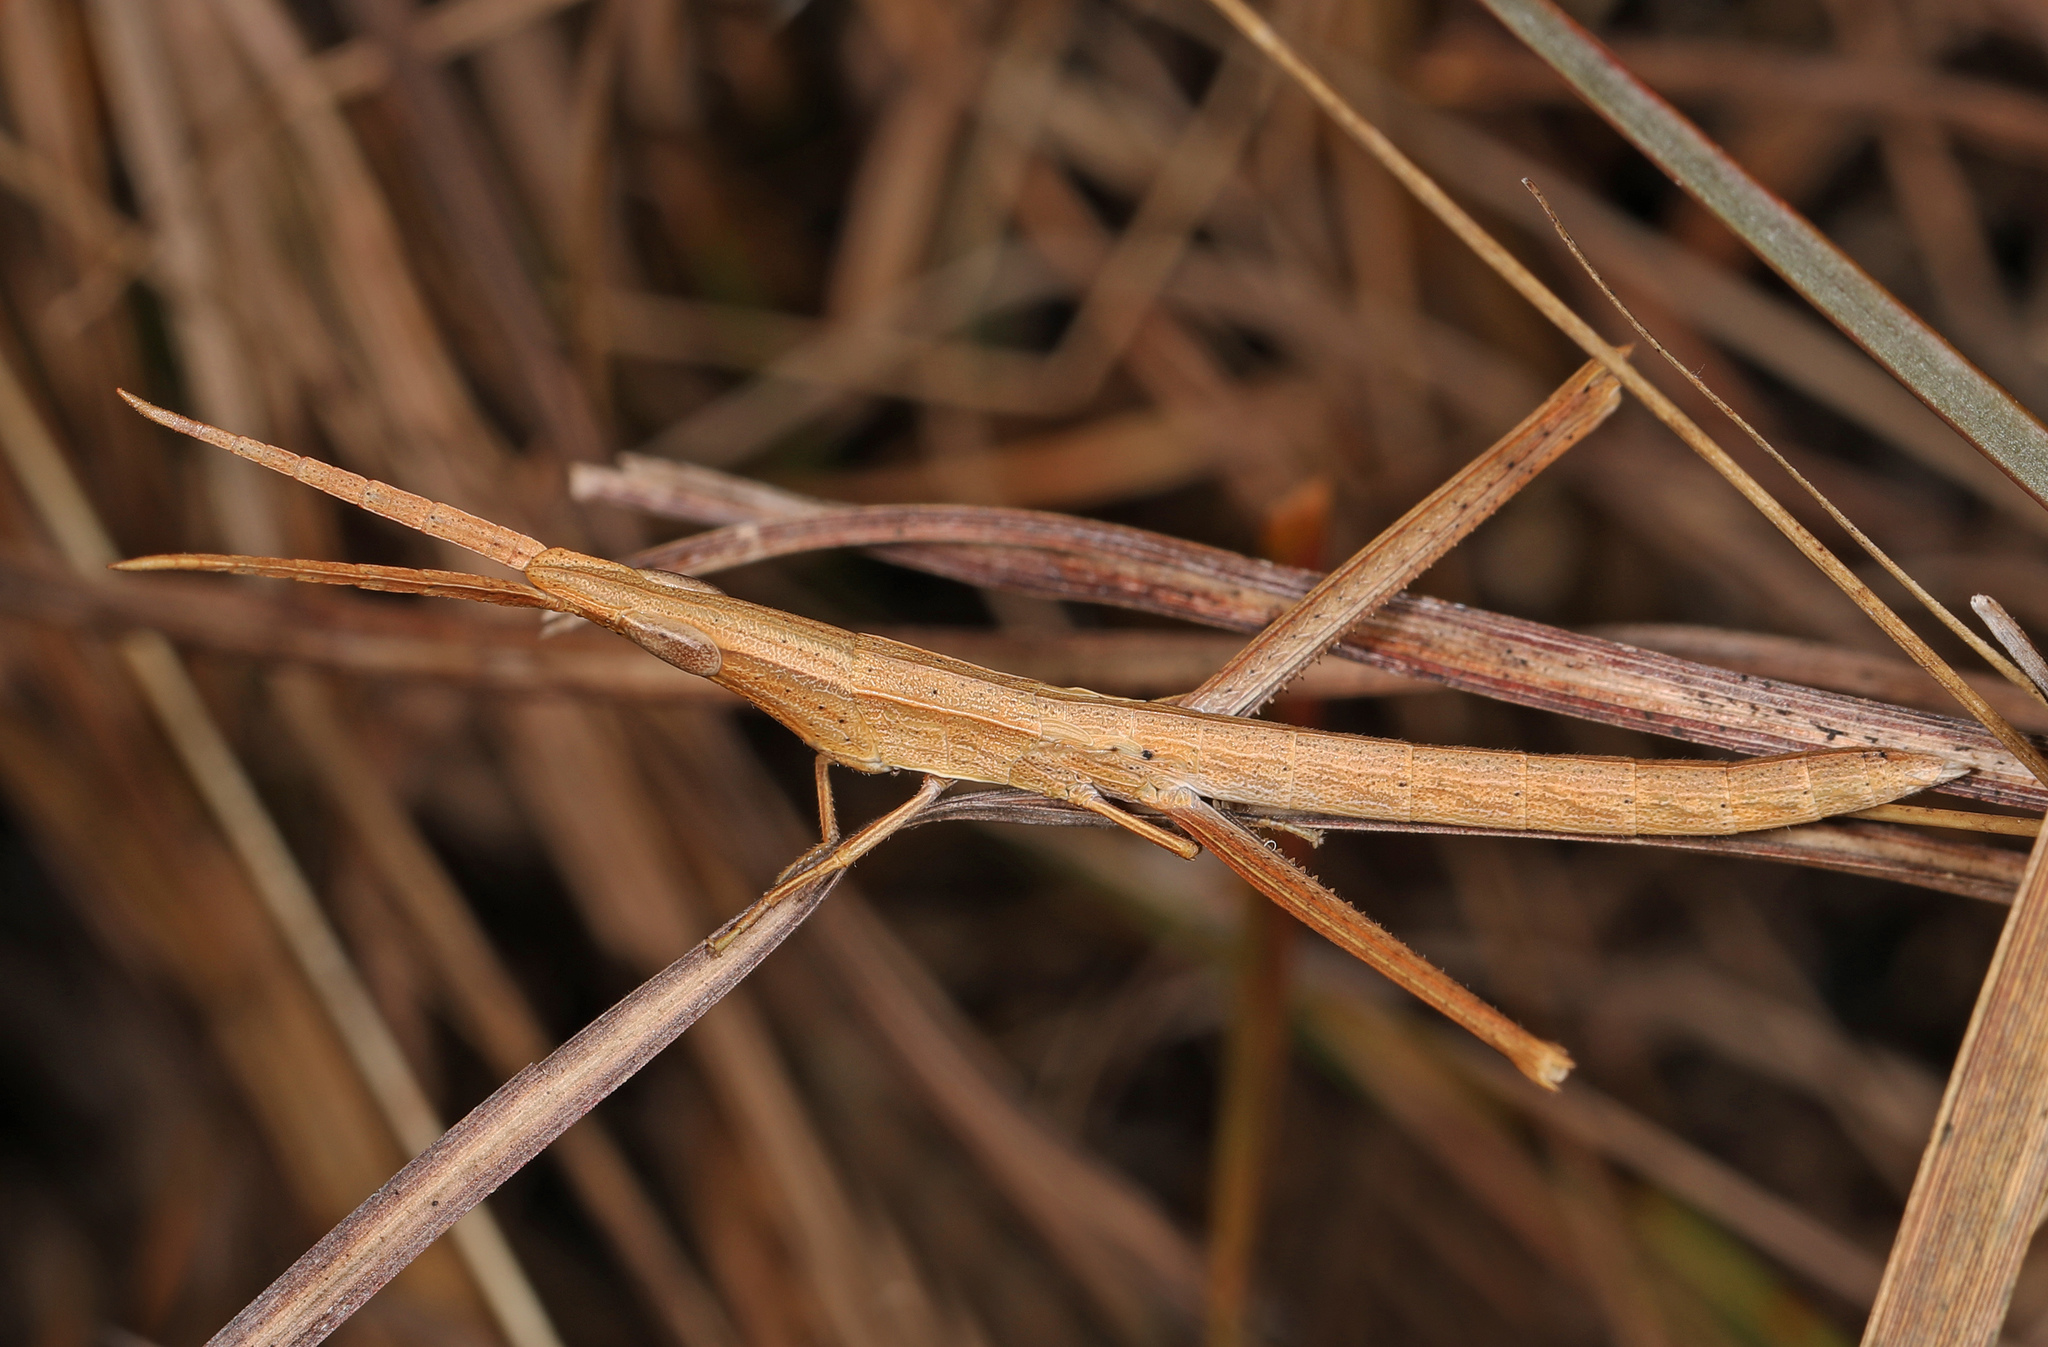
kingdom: Animalia
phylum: Arthropoda
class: Insecta
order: Orthoptera
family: Acrididae
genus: Achurum
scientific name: Achurum carinatum
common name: Long-headed toothpick grasshopper
